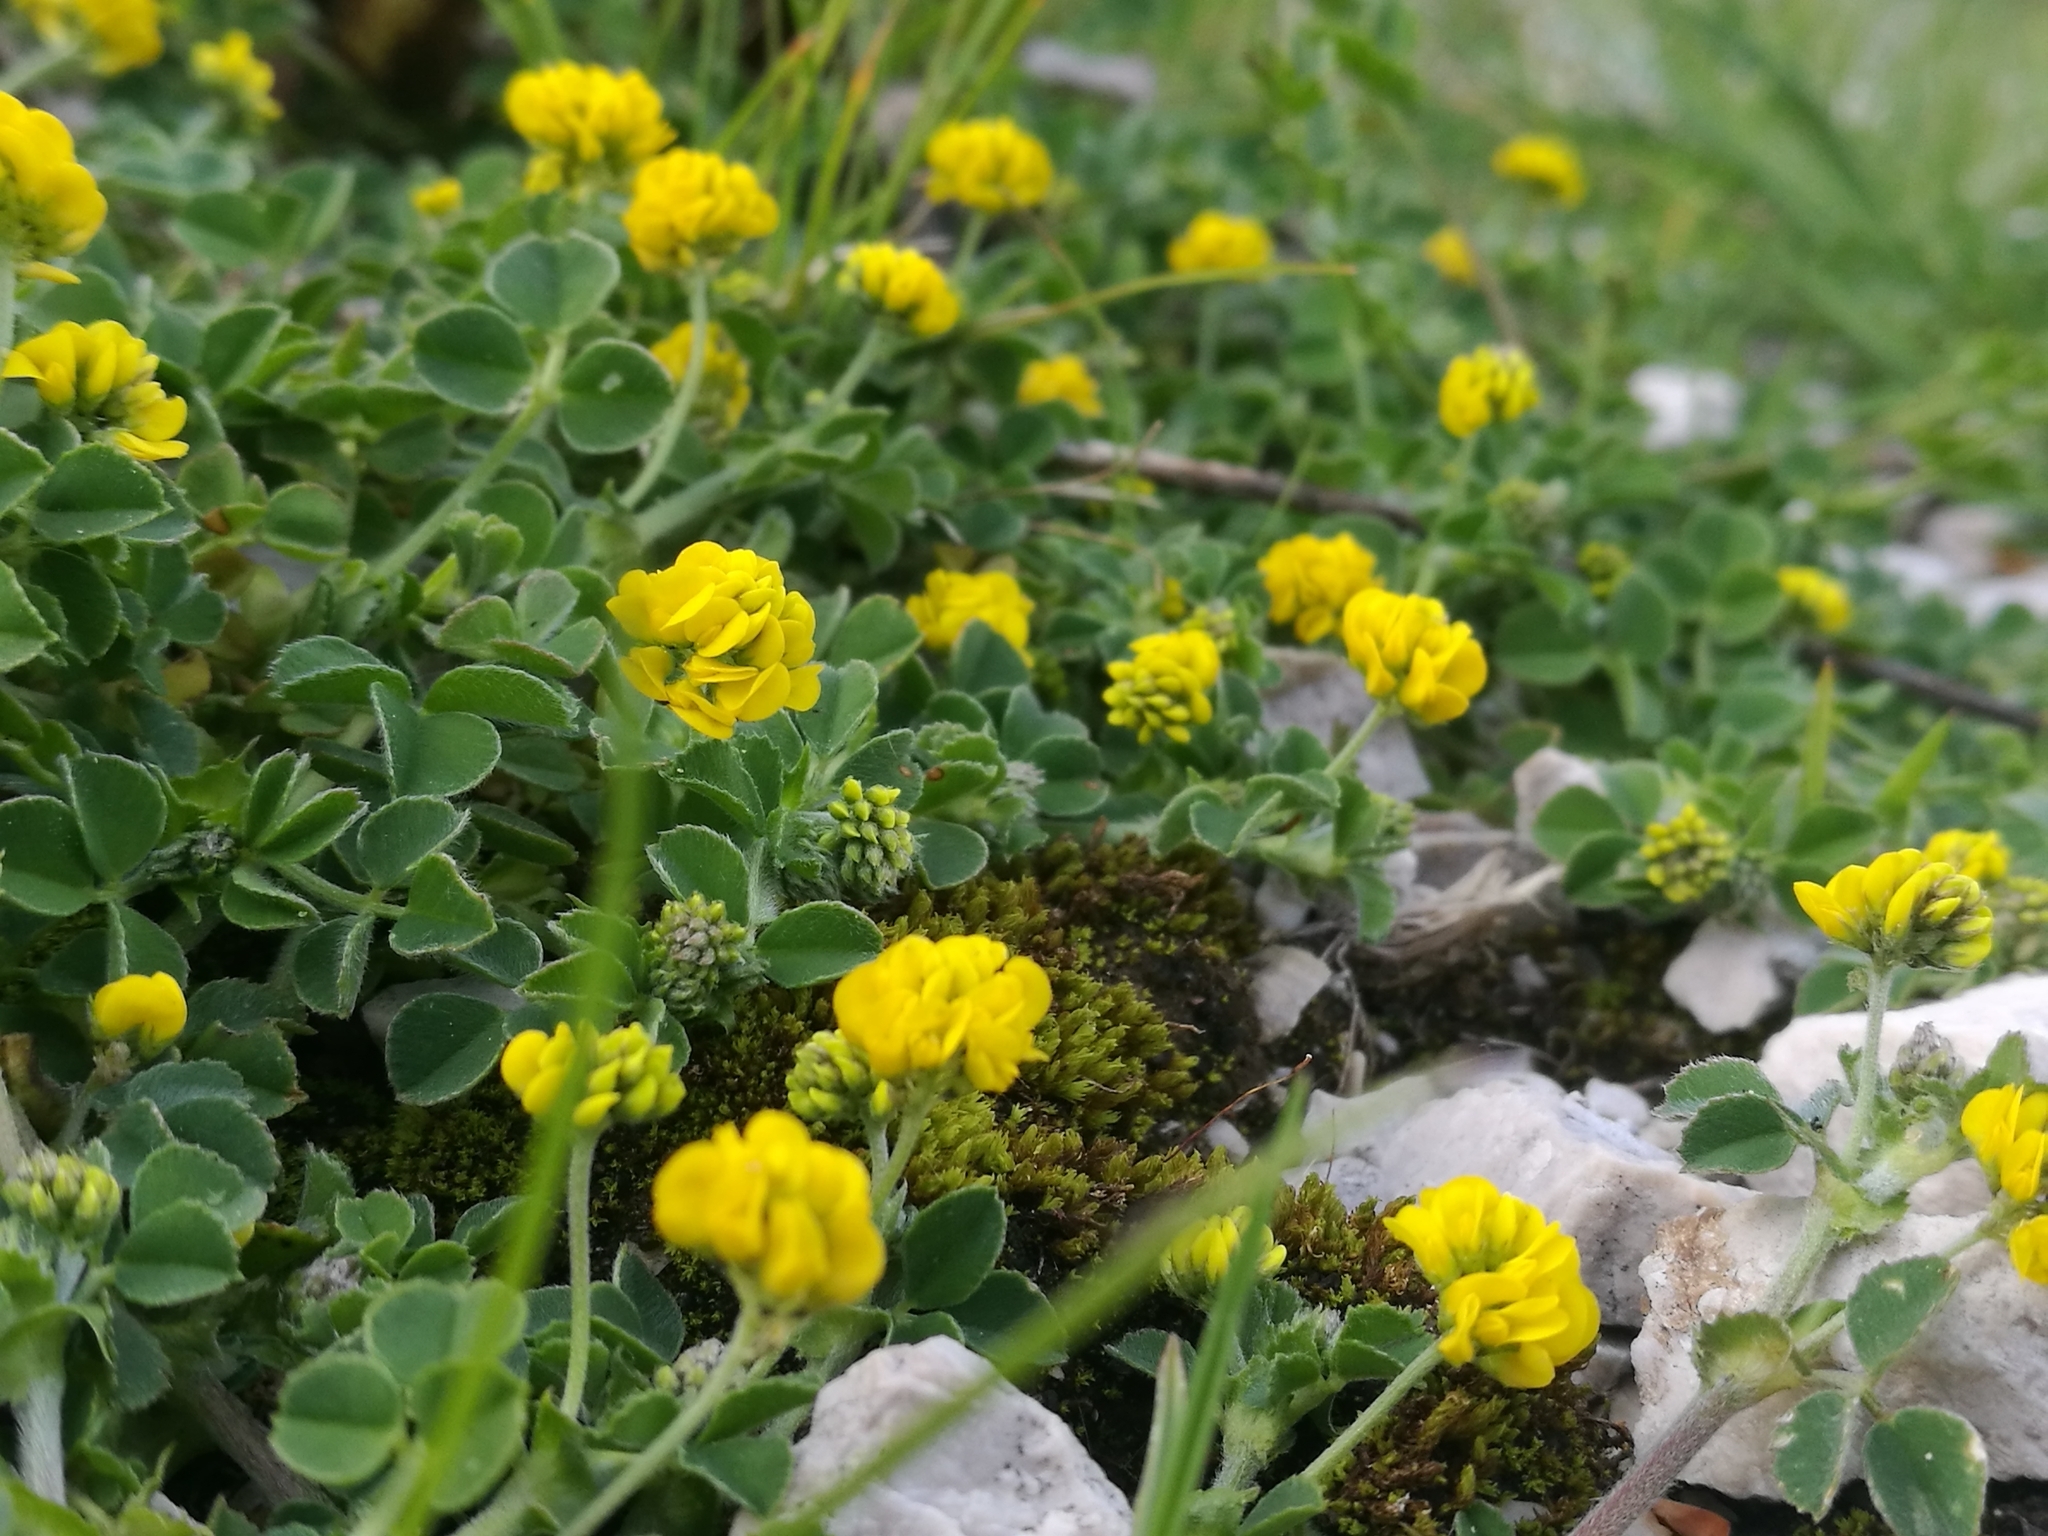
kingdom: Plantae
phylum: Tracheophyta
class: Magnoliopsida
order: Fabales
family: Fabaceae
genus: Medicago
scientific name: Medicago lupulina
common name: Black medick
